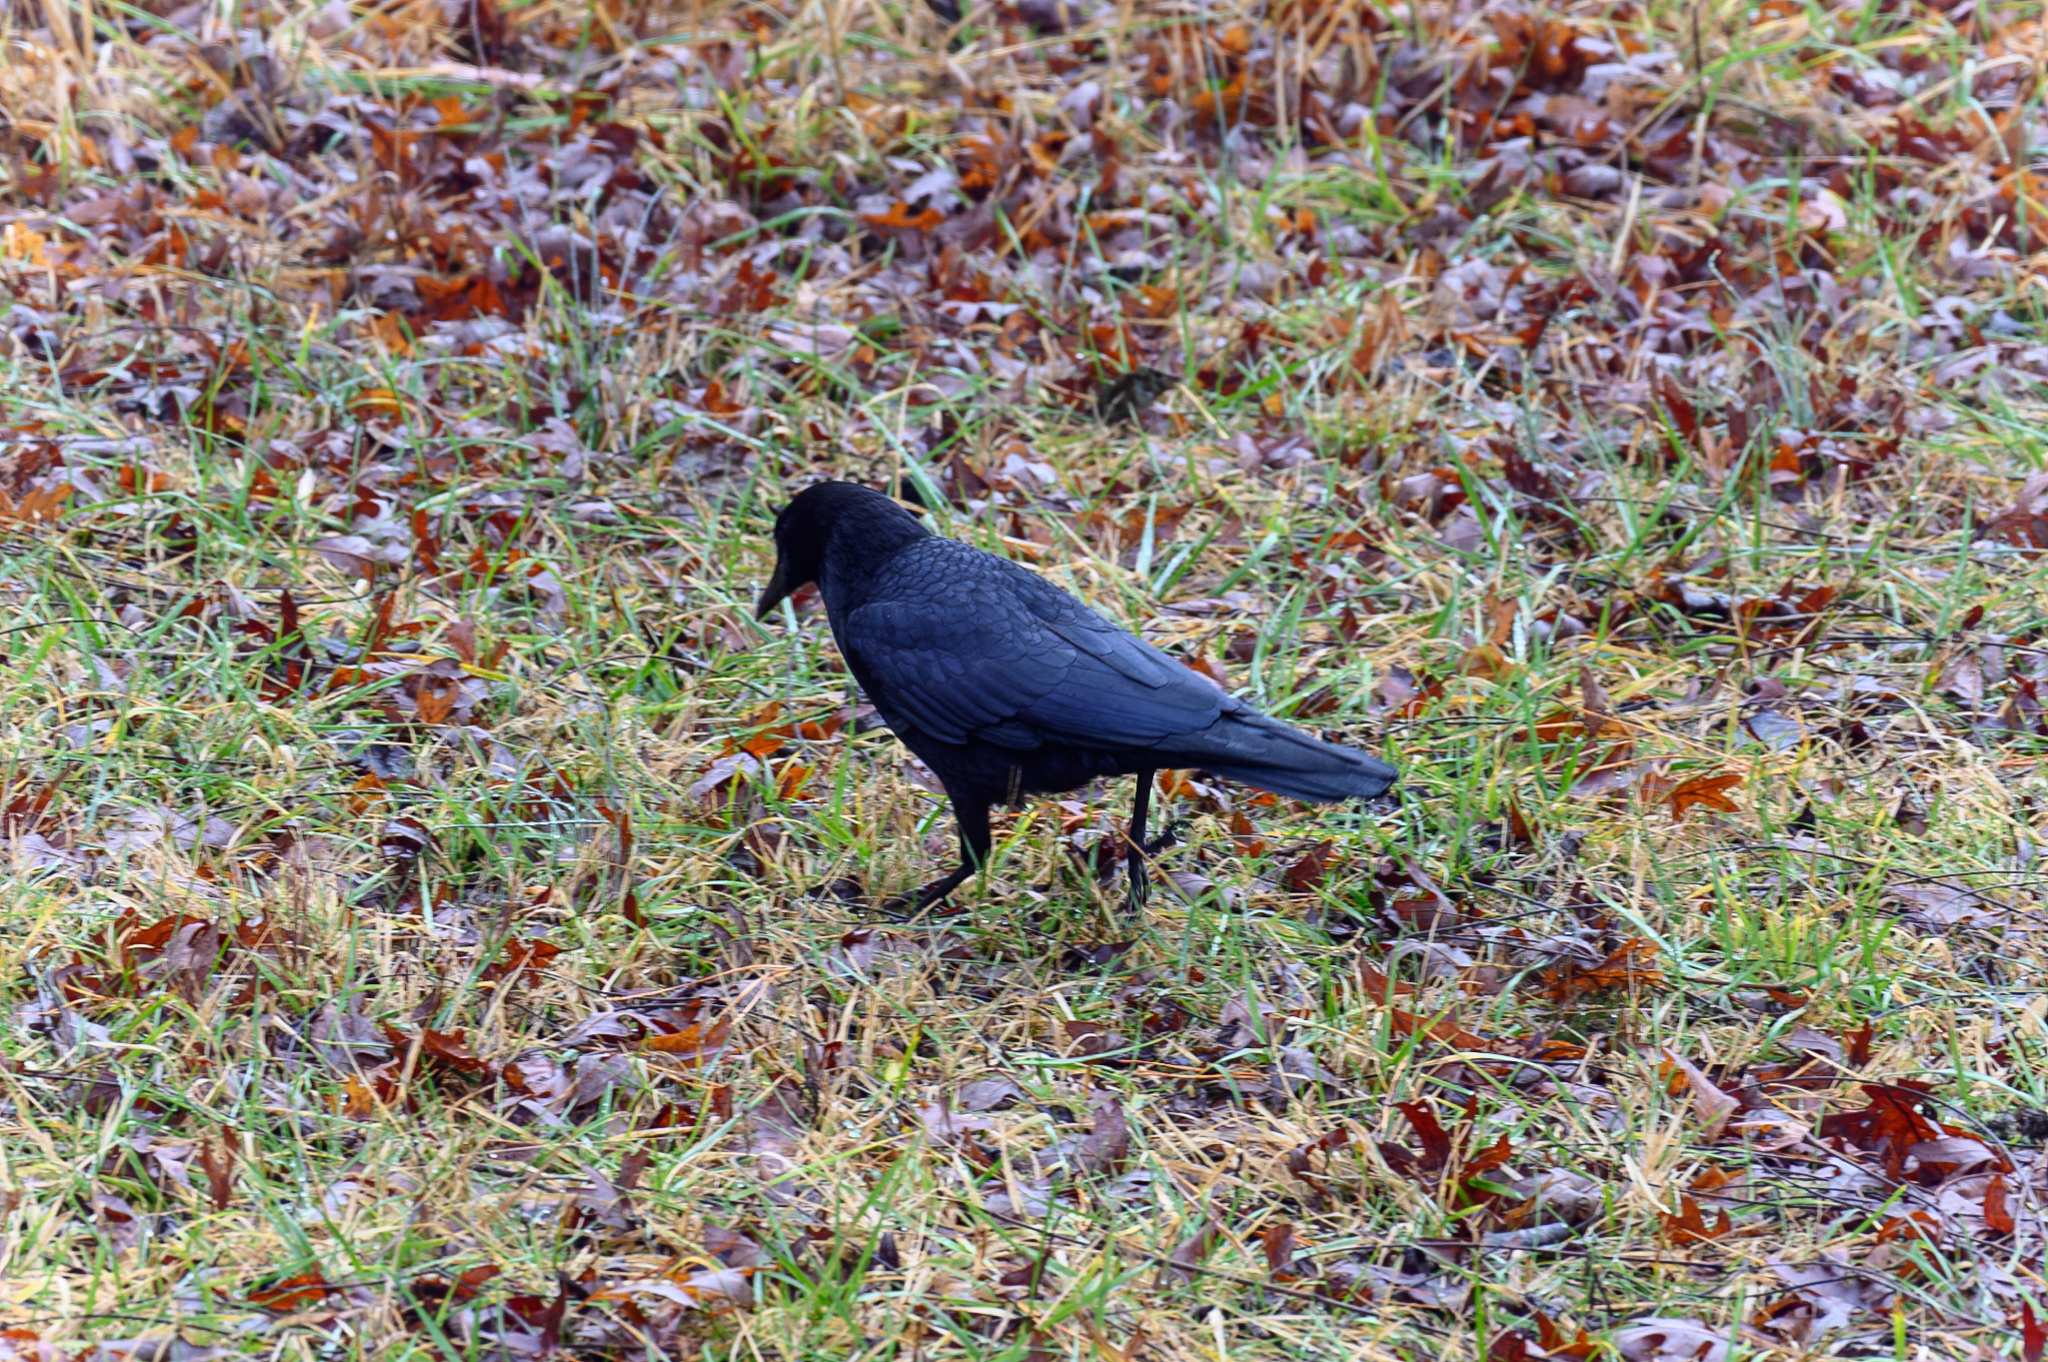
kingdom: Animalia
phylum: Chordata
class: Aves
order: Passeriformes
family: Corvidae
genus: Corvus
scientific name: Corvus brachyrhynchos
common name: American crow
